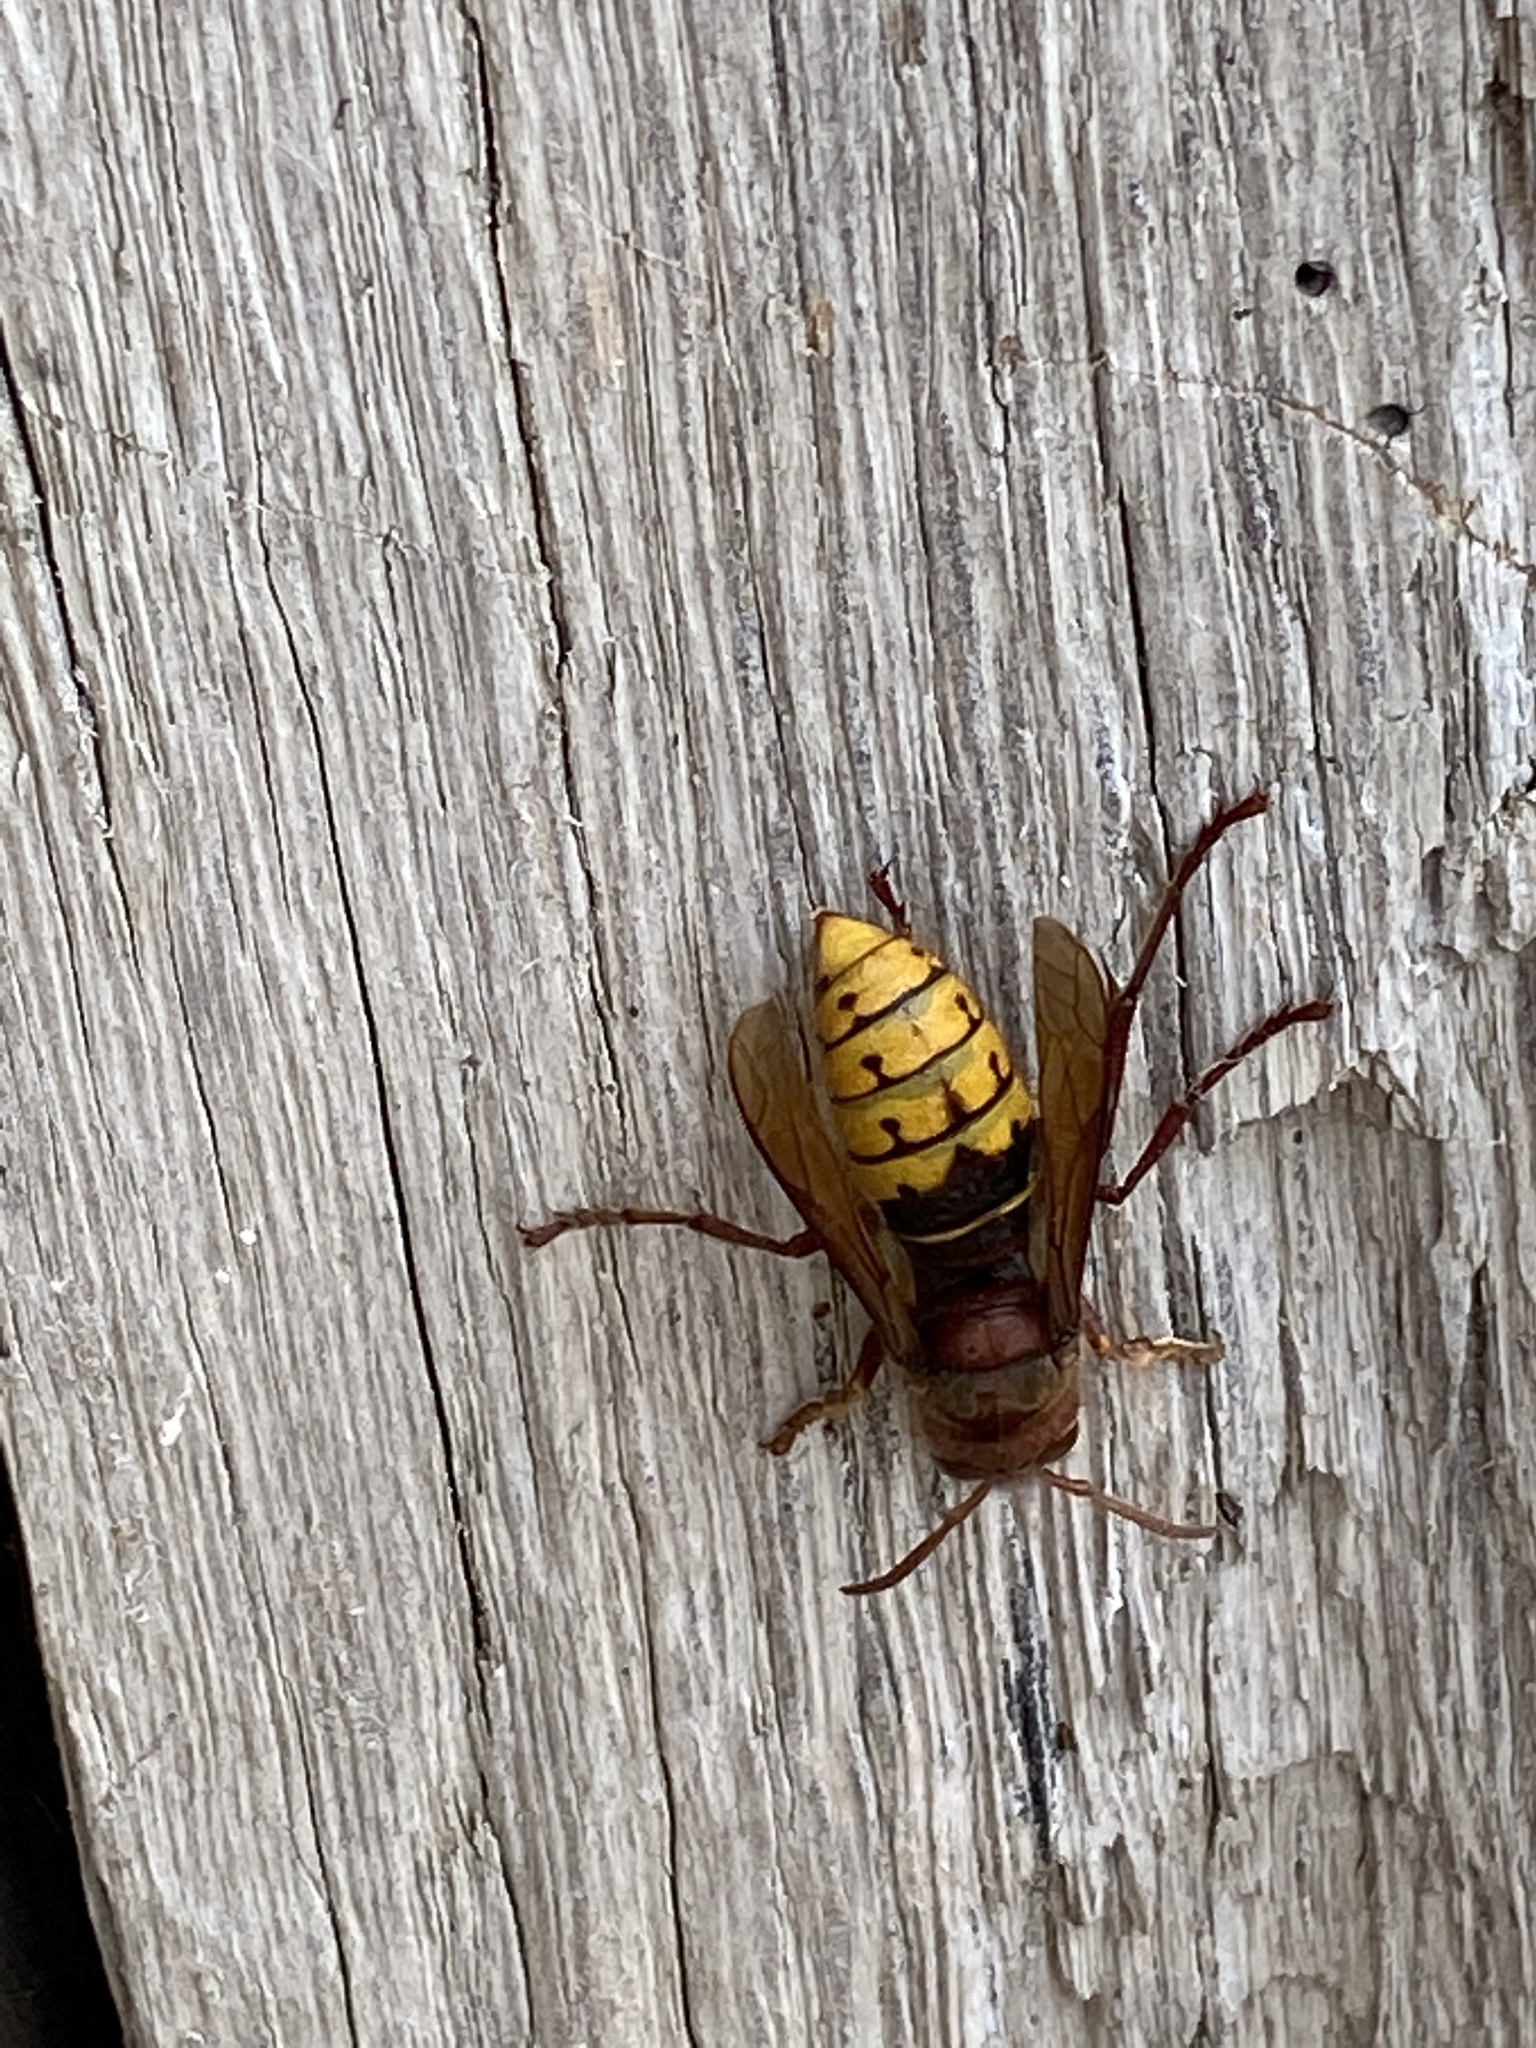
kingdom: Animalia
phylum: Arthropoda
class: Insecta
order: Hymenoptera
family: Vespidae
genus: Vespa
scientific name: Vespa crabro
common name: Hornet
